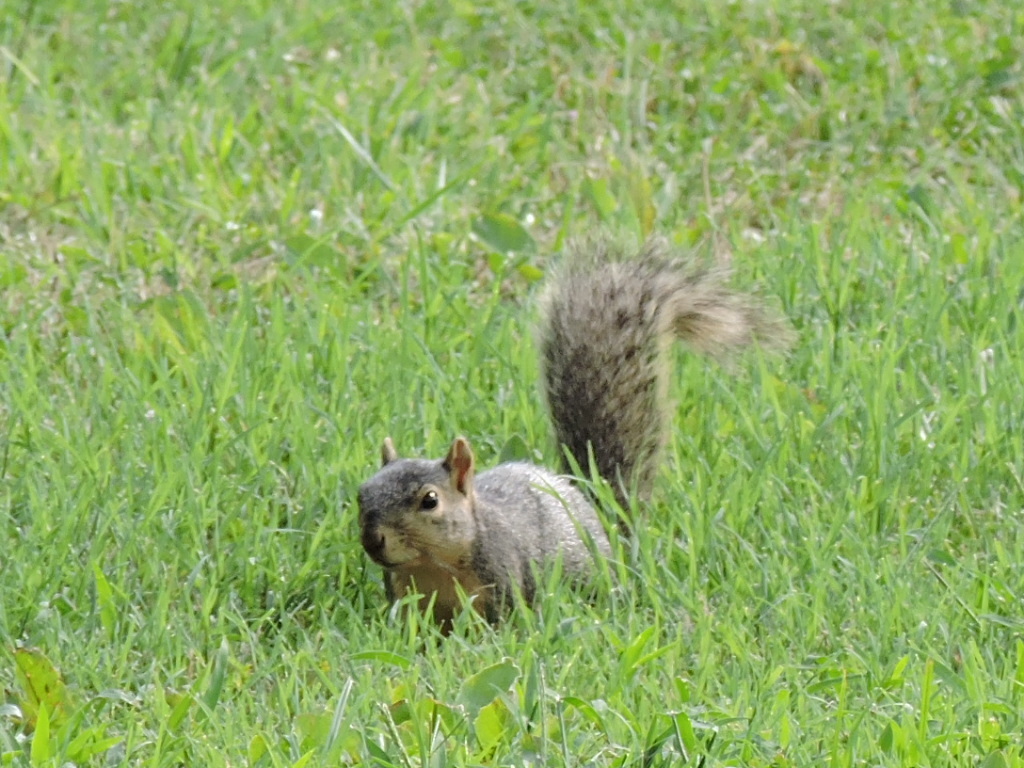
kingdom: Animalia
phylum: Chordata
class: Mammalia
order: Rodentia
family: Sciuridae
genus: Sciurus
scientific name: Sciurus niger
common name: Fox squirrel
